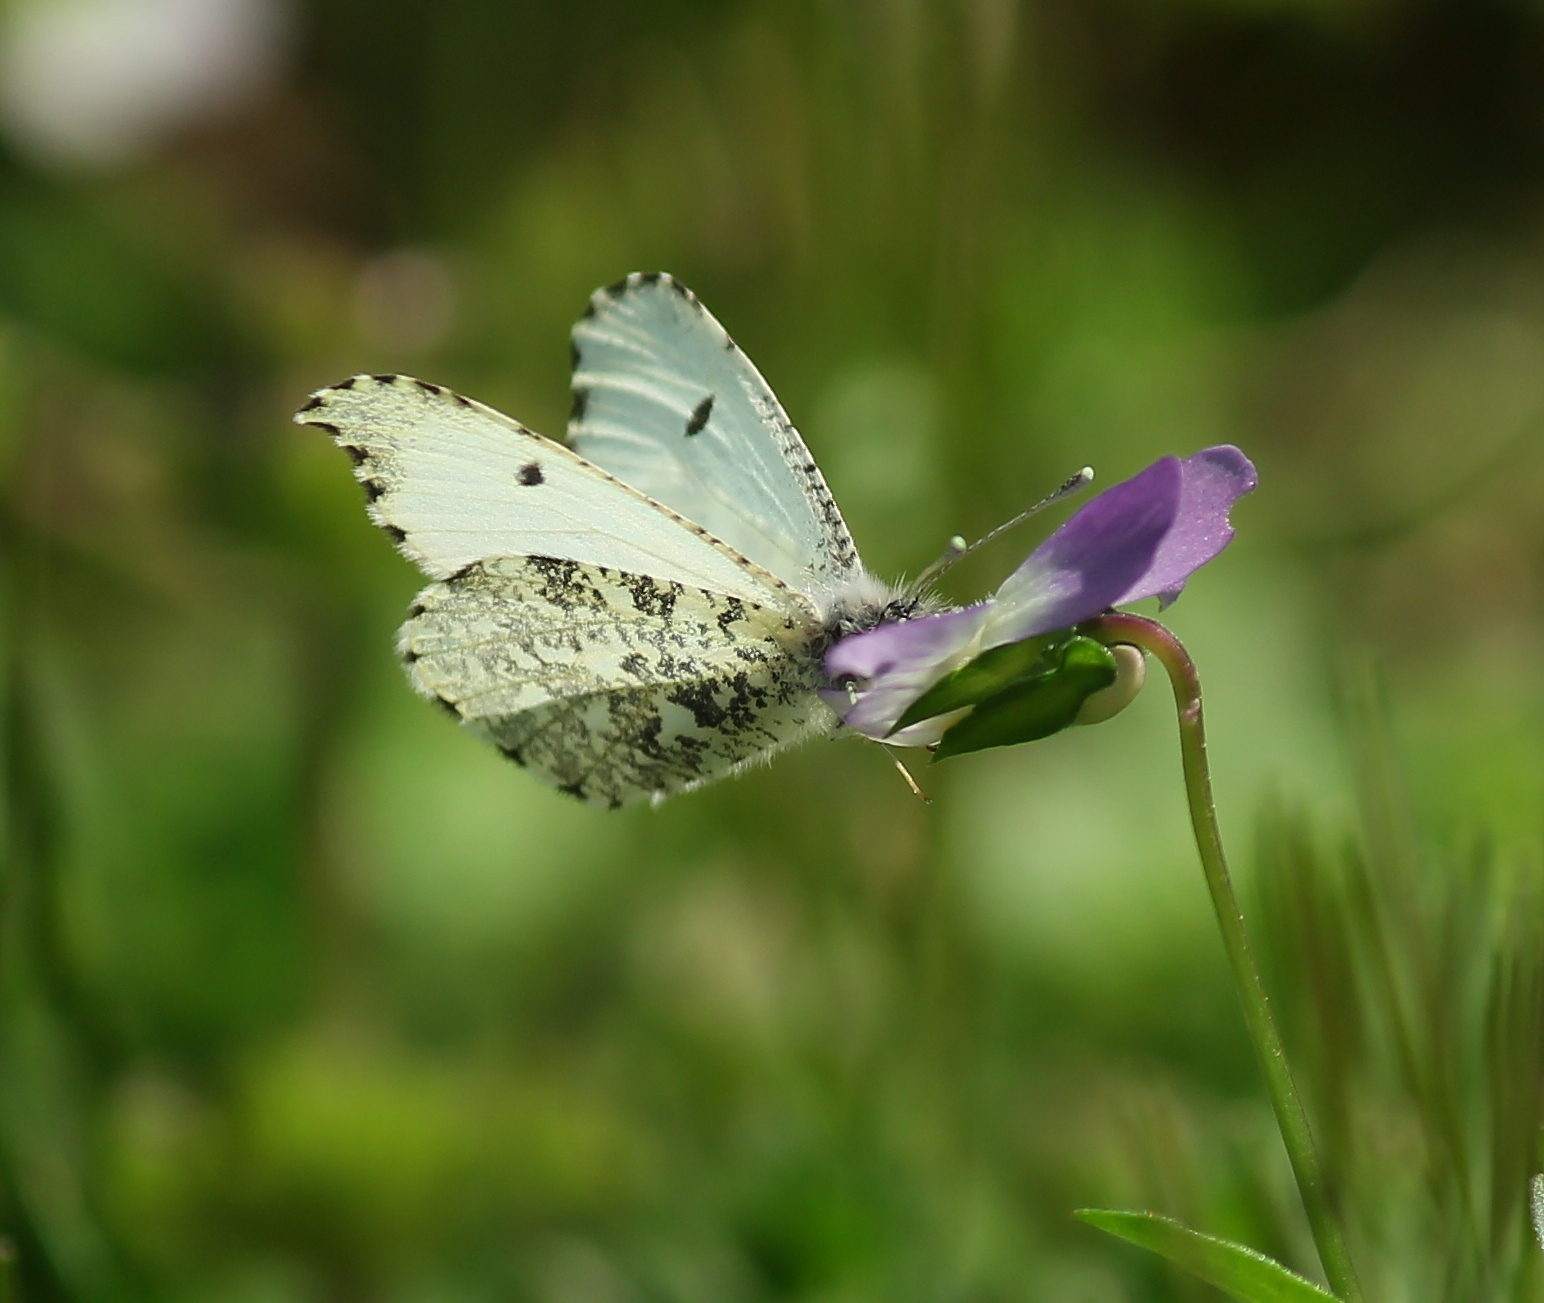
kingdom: Animalia
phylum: Arthropoda
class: Insecta
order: Lepidoptera
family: Pieridae
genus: Anthocharis
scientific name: Anthocharis midea
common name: Falcate orangetip
